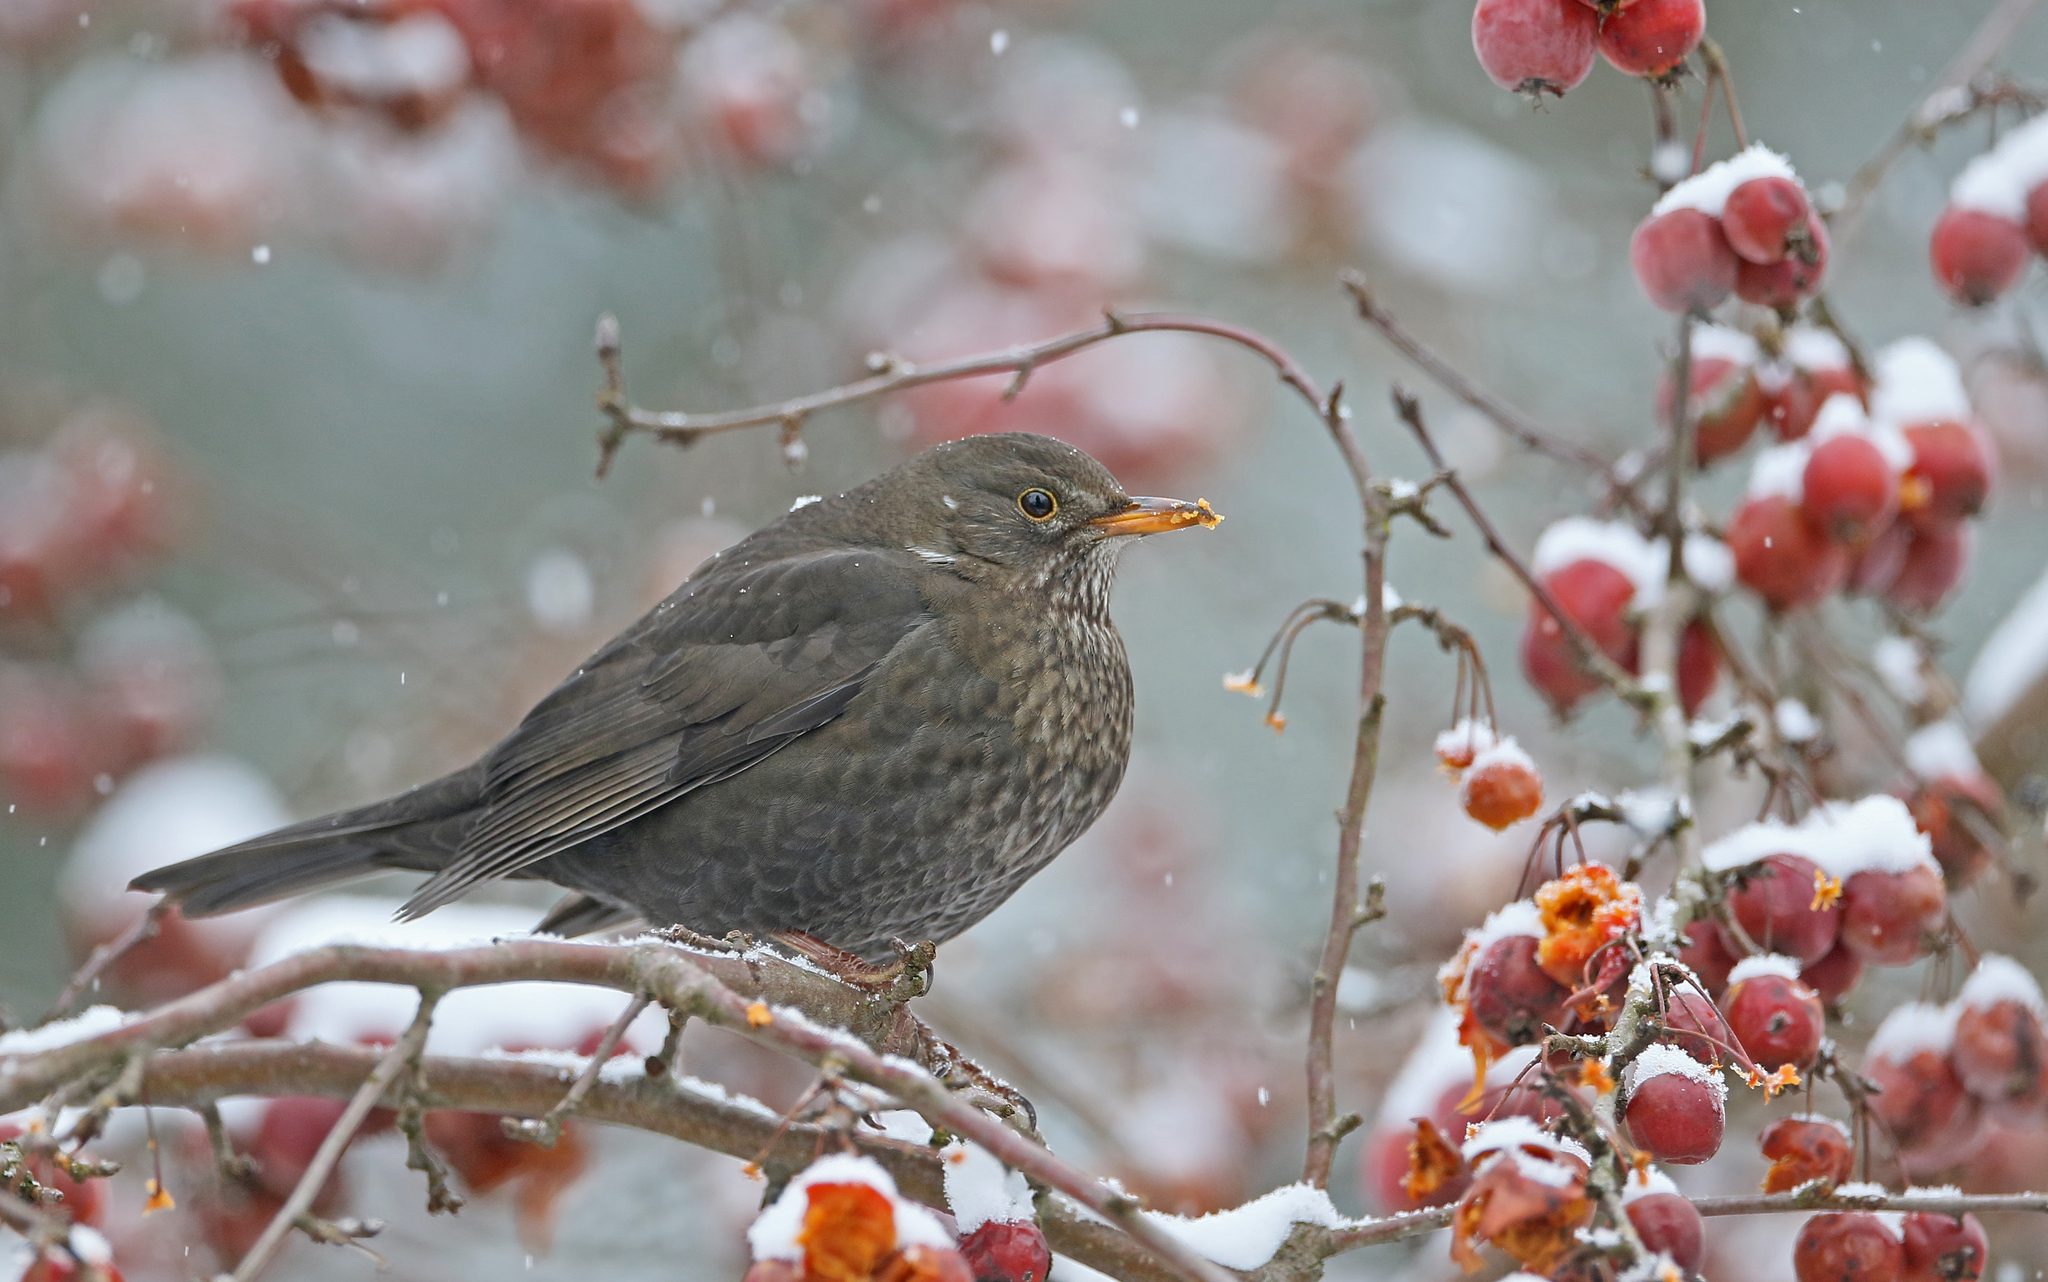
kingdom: Animalia
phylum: Chordata
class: Aves
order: Passeriformes
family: Turdidae
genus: Turdus
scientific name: Turdus merula
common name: Common blackbird
